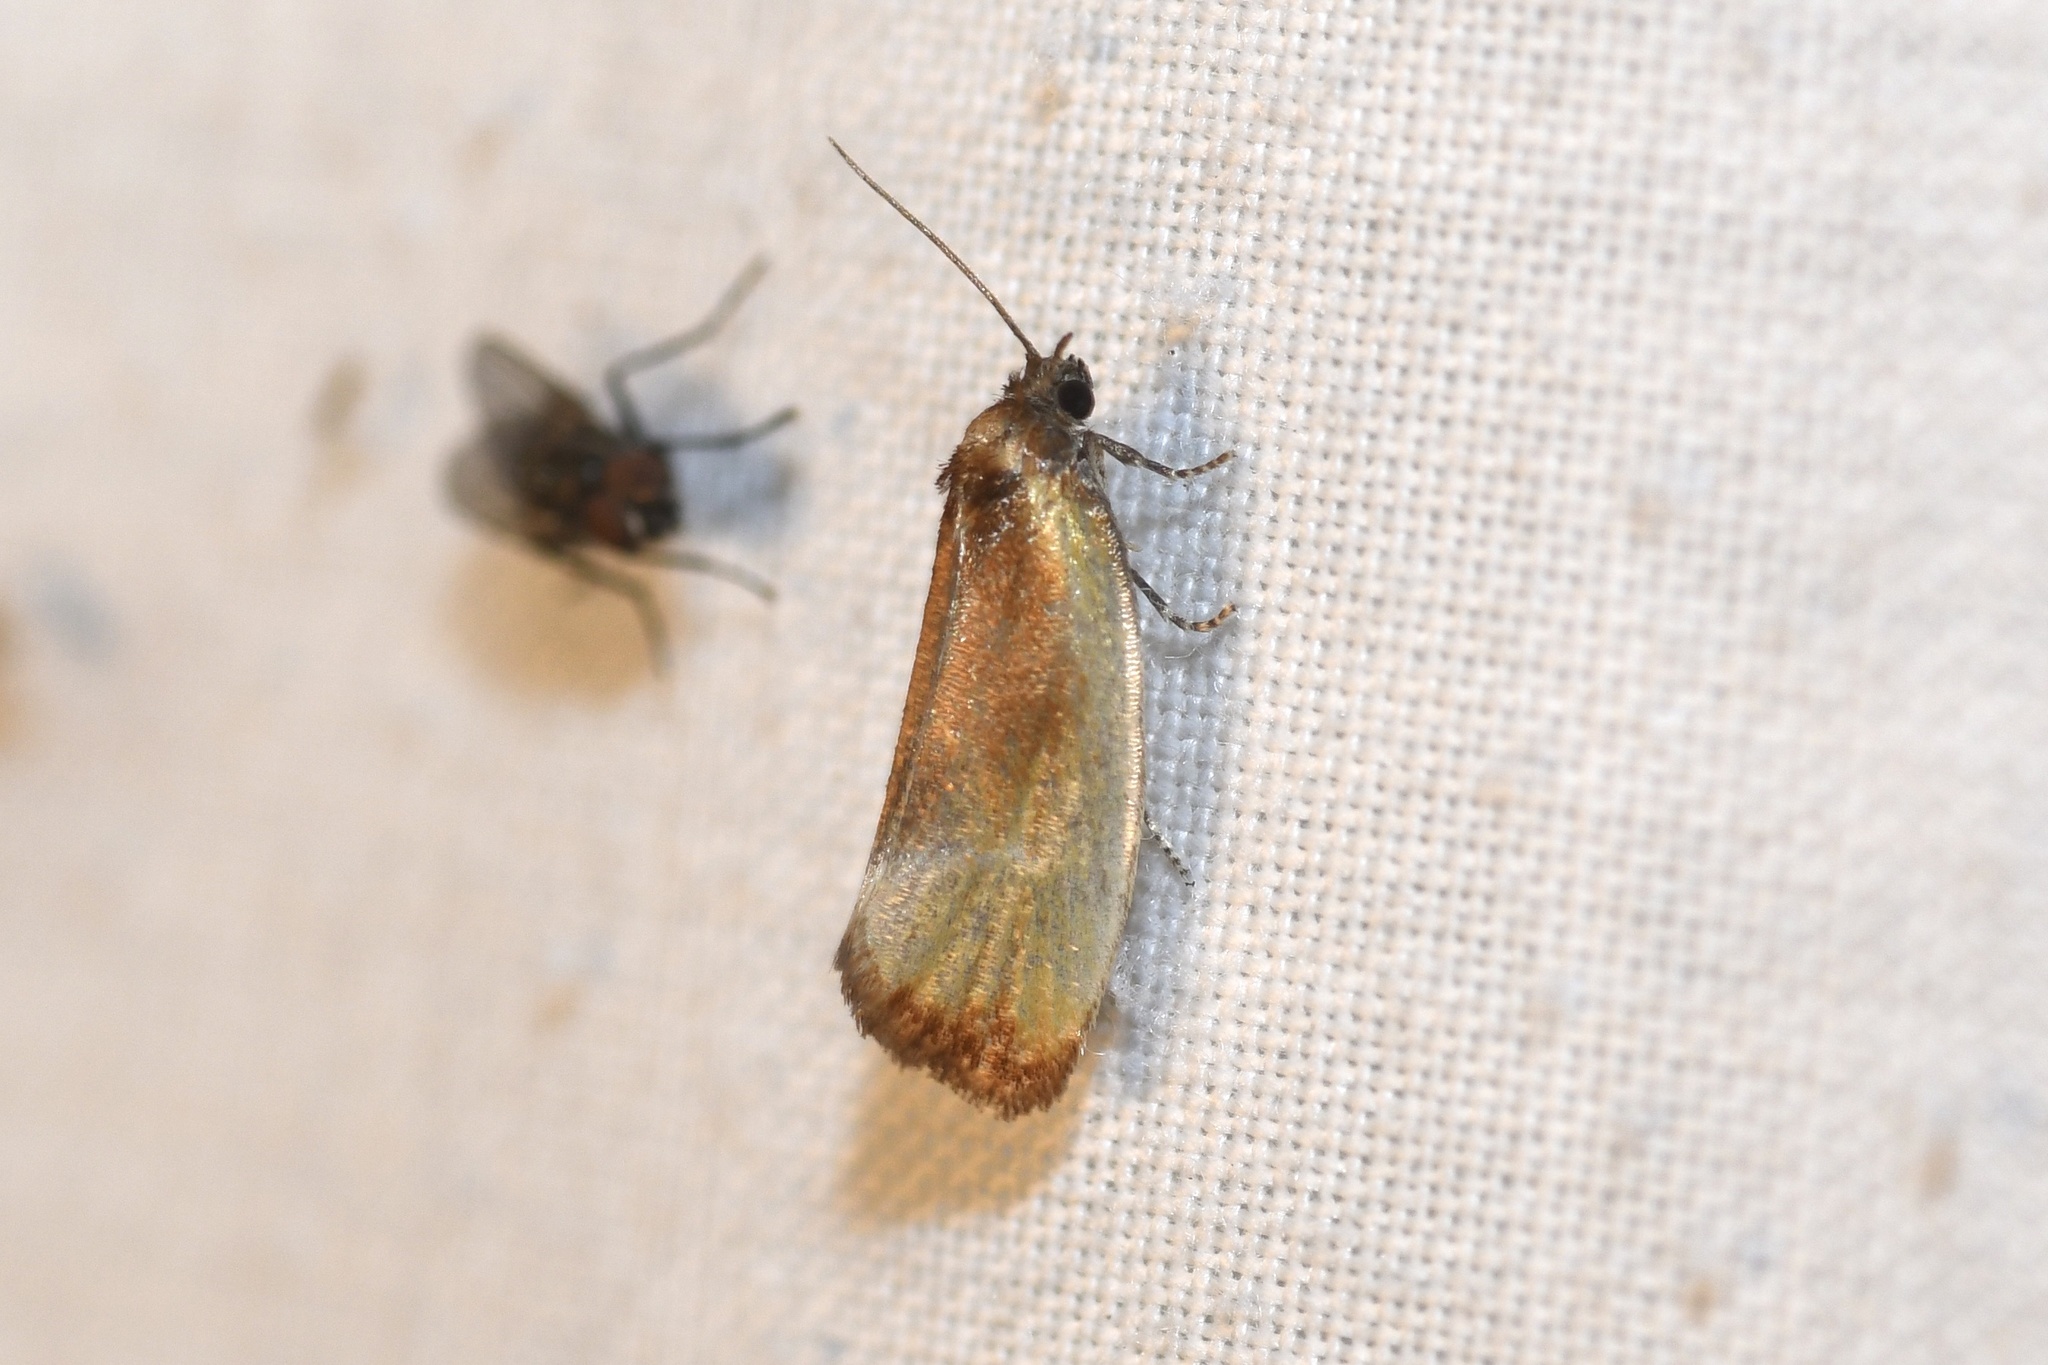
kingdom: Animalia
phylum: Arthropoda
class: Insecta
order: Lepidoptera
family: Tortricidae
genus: Eulia
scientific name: Eulia ministrana
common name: Brassy twist
